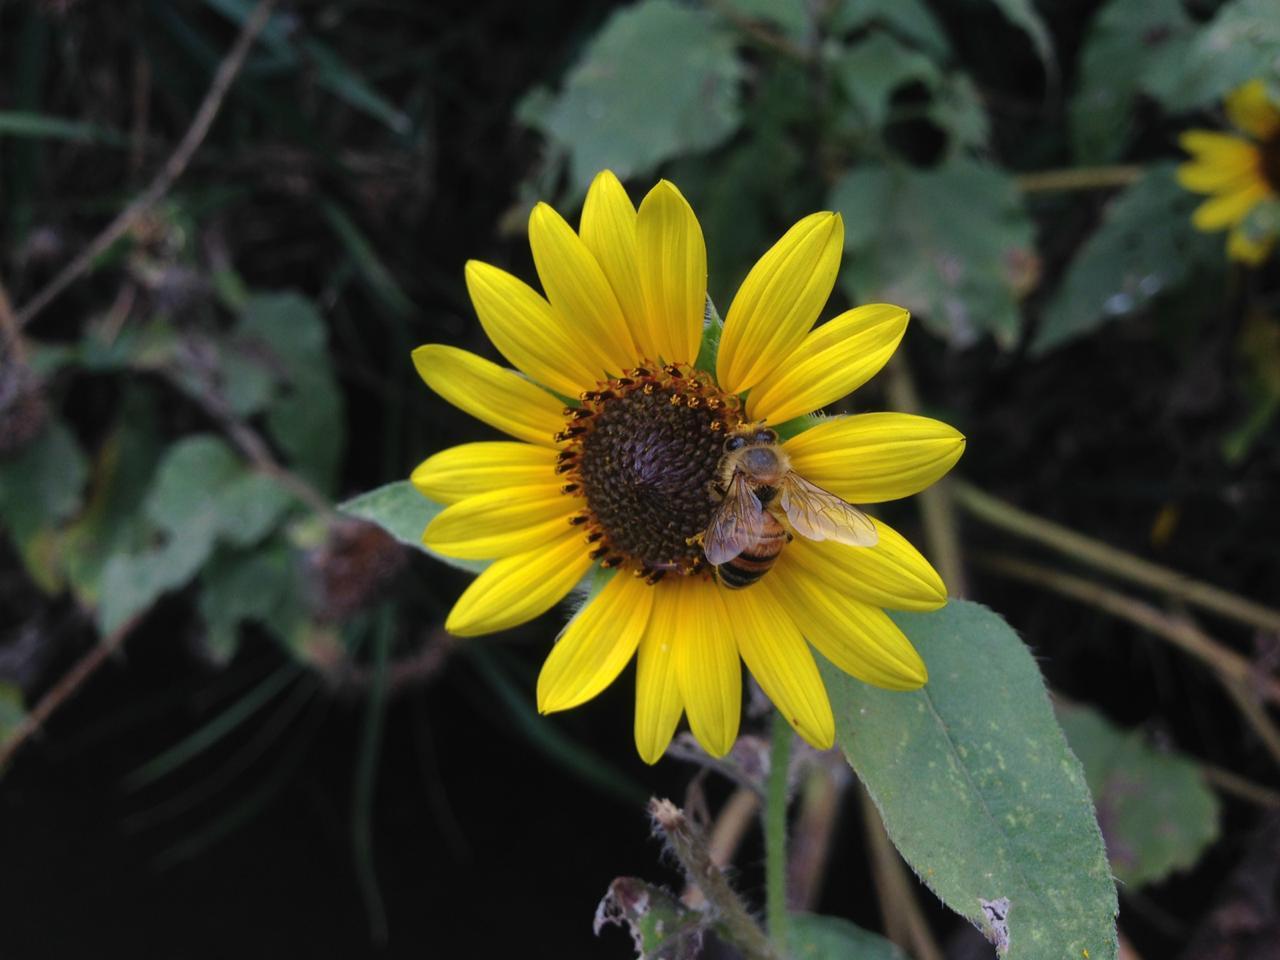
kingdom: Animalia
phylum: Arthropoda
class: Insecta
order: Hymenoptera
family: Apidae
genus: Apis
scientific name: Apis mellifera
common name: Honey bee
